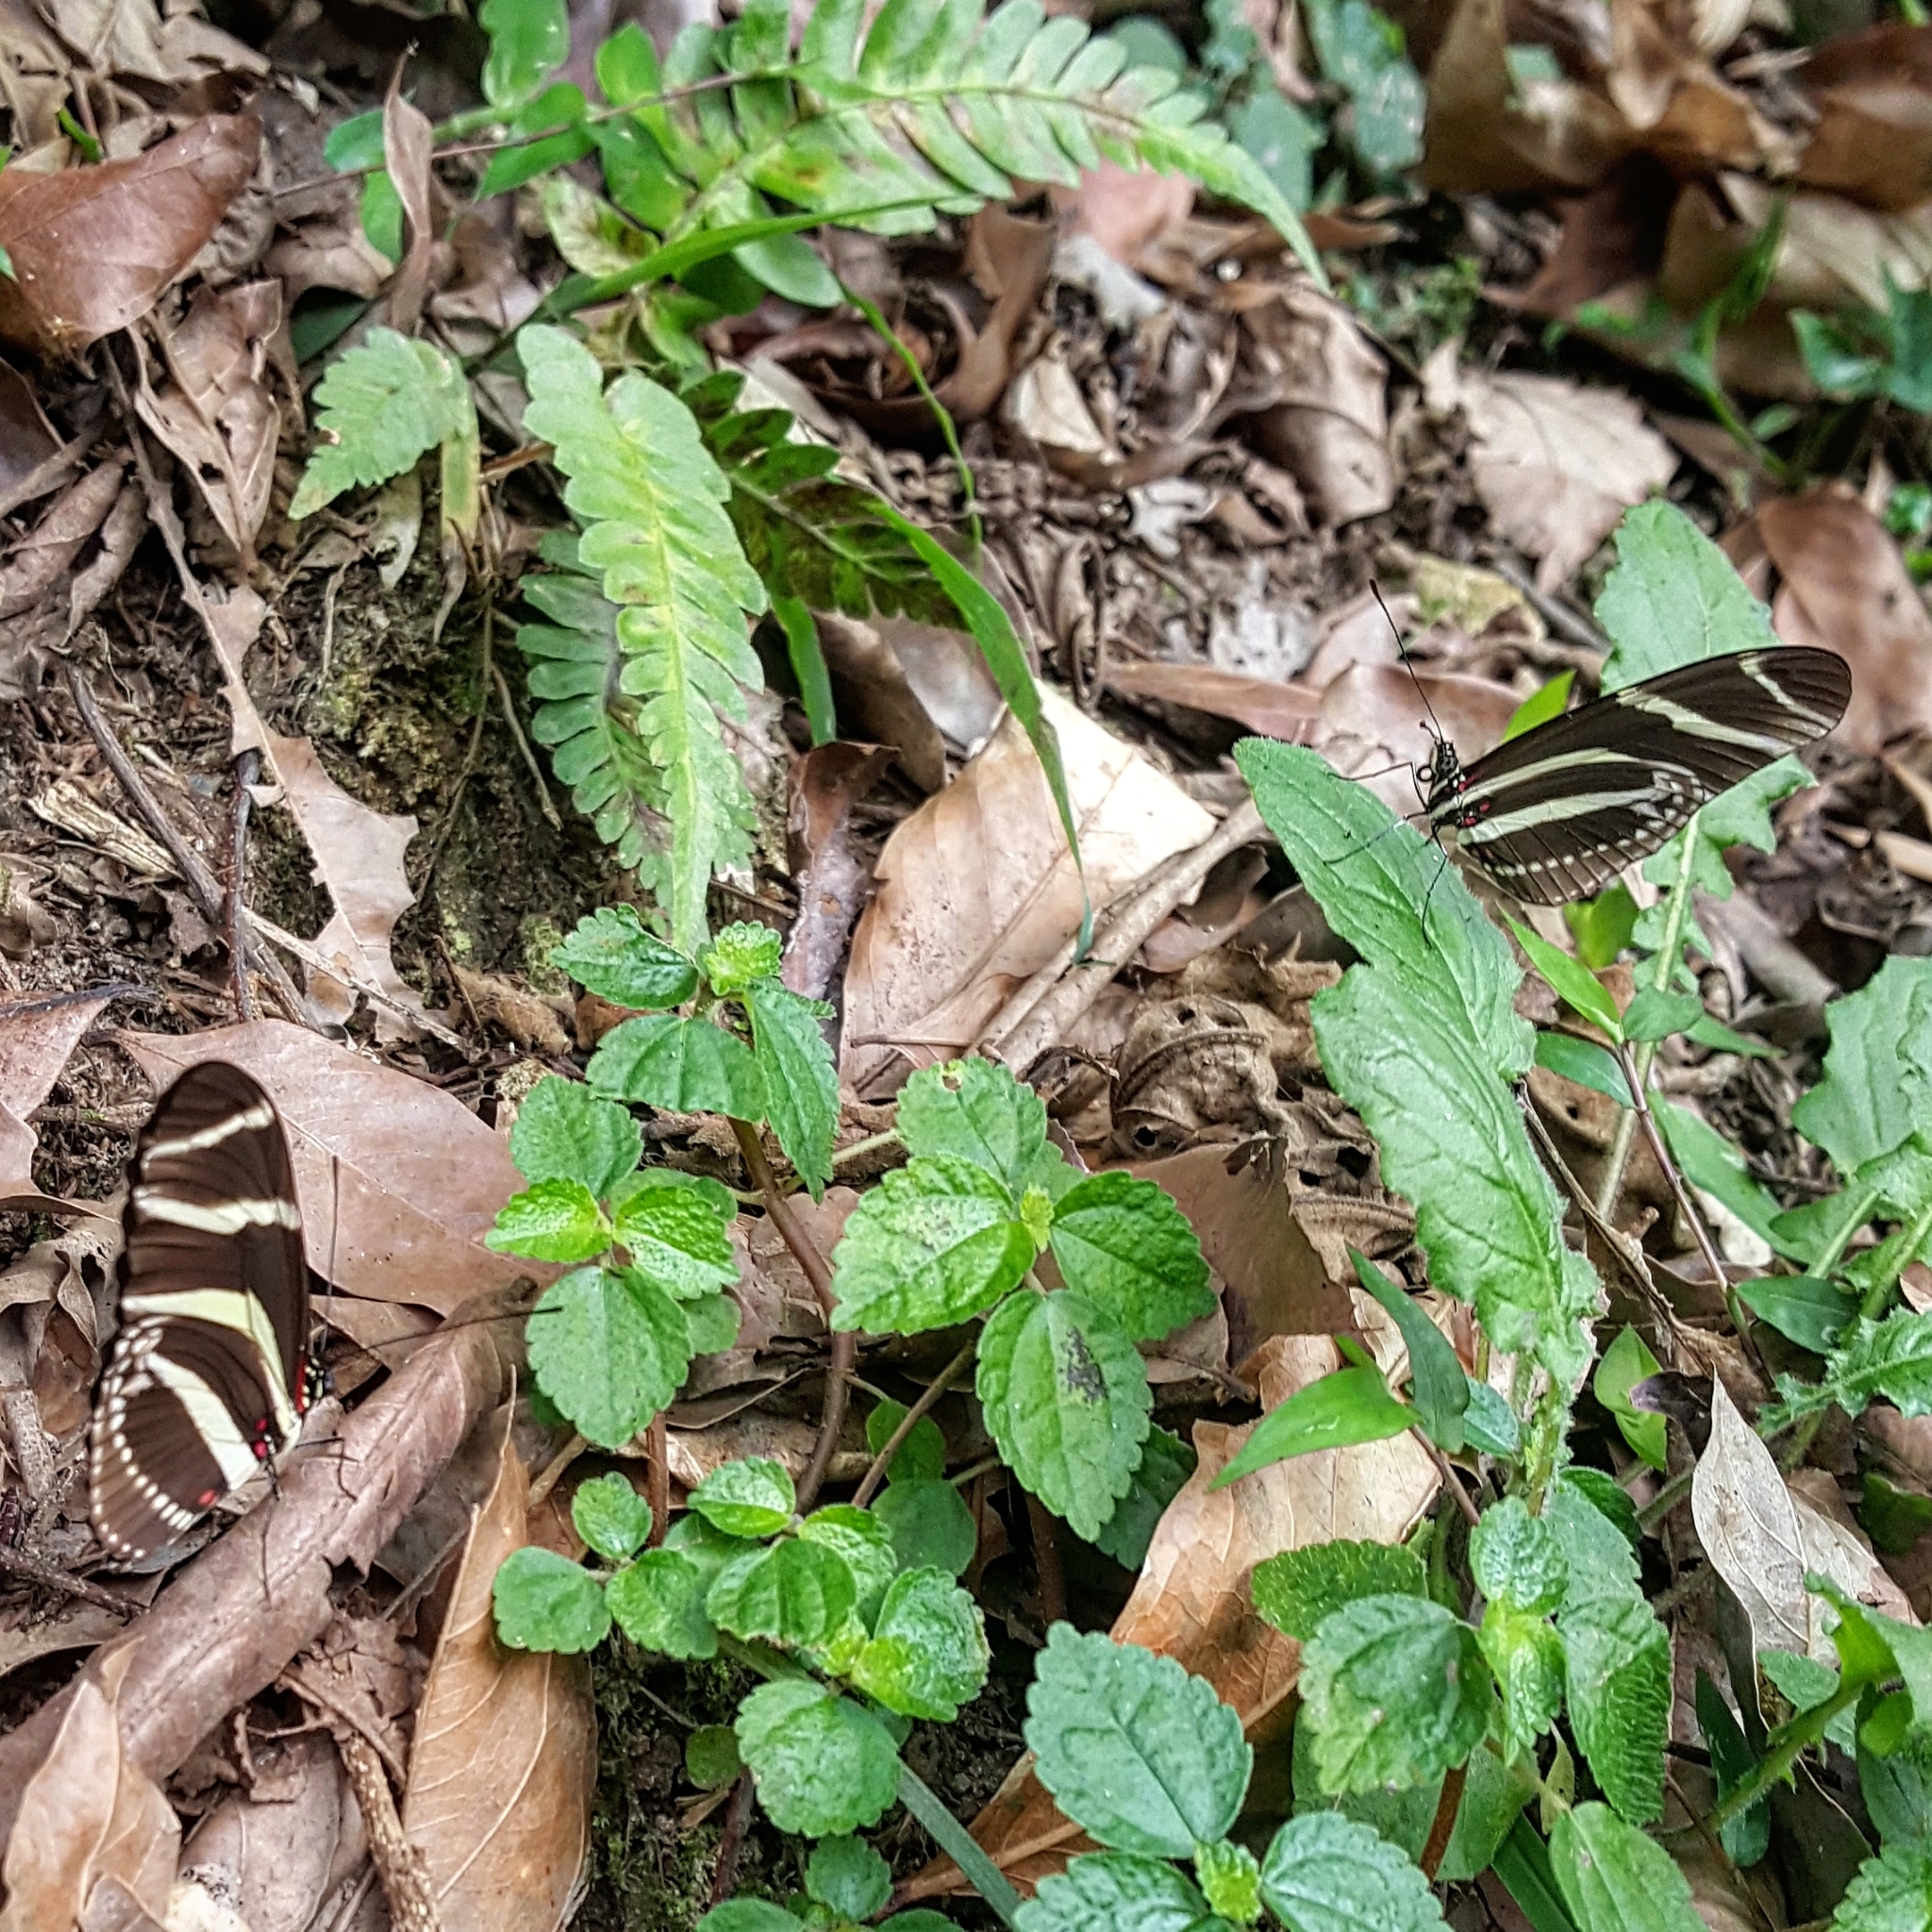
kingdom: Animalia
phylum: Arthropoda
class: Insecta
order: Lepidoptera
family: Nymphalidae
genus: Heliconius
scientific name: Heliconius charithonia
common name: Zebra long wing
